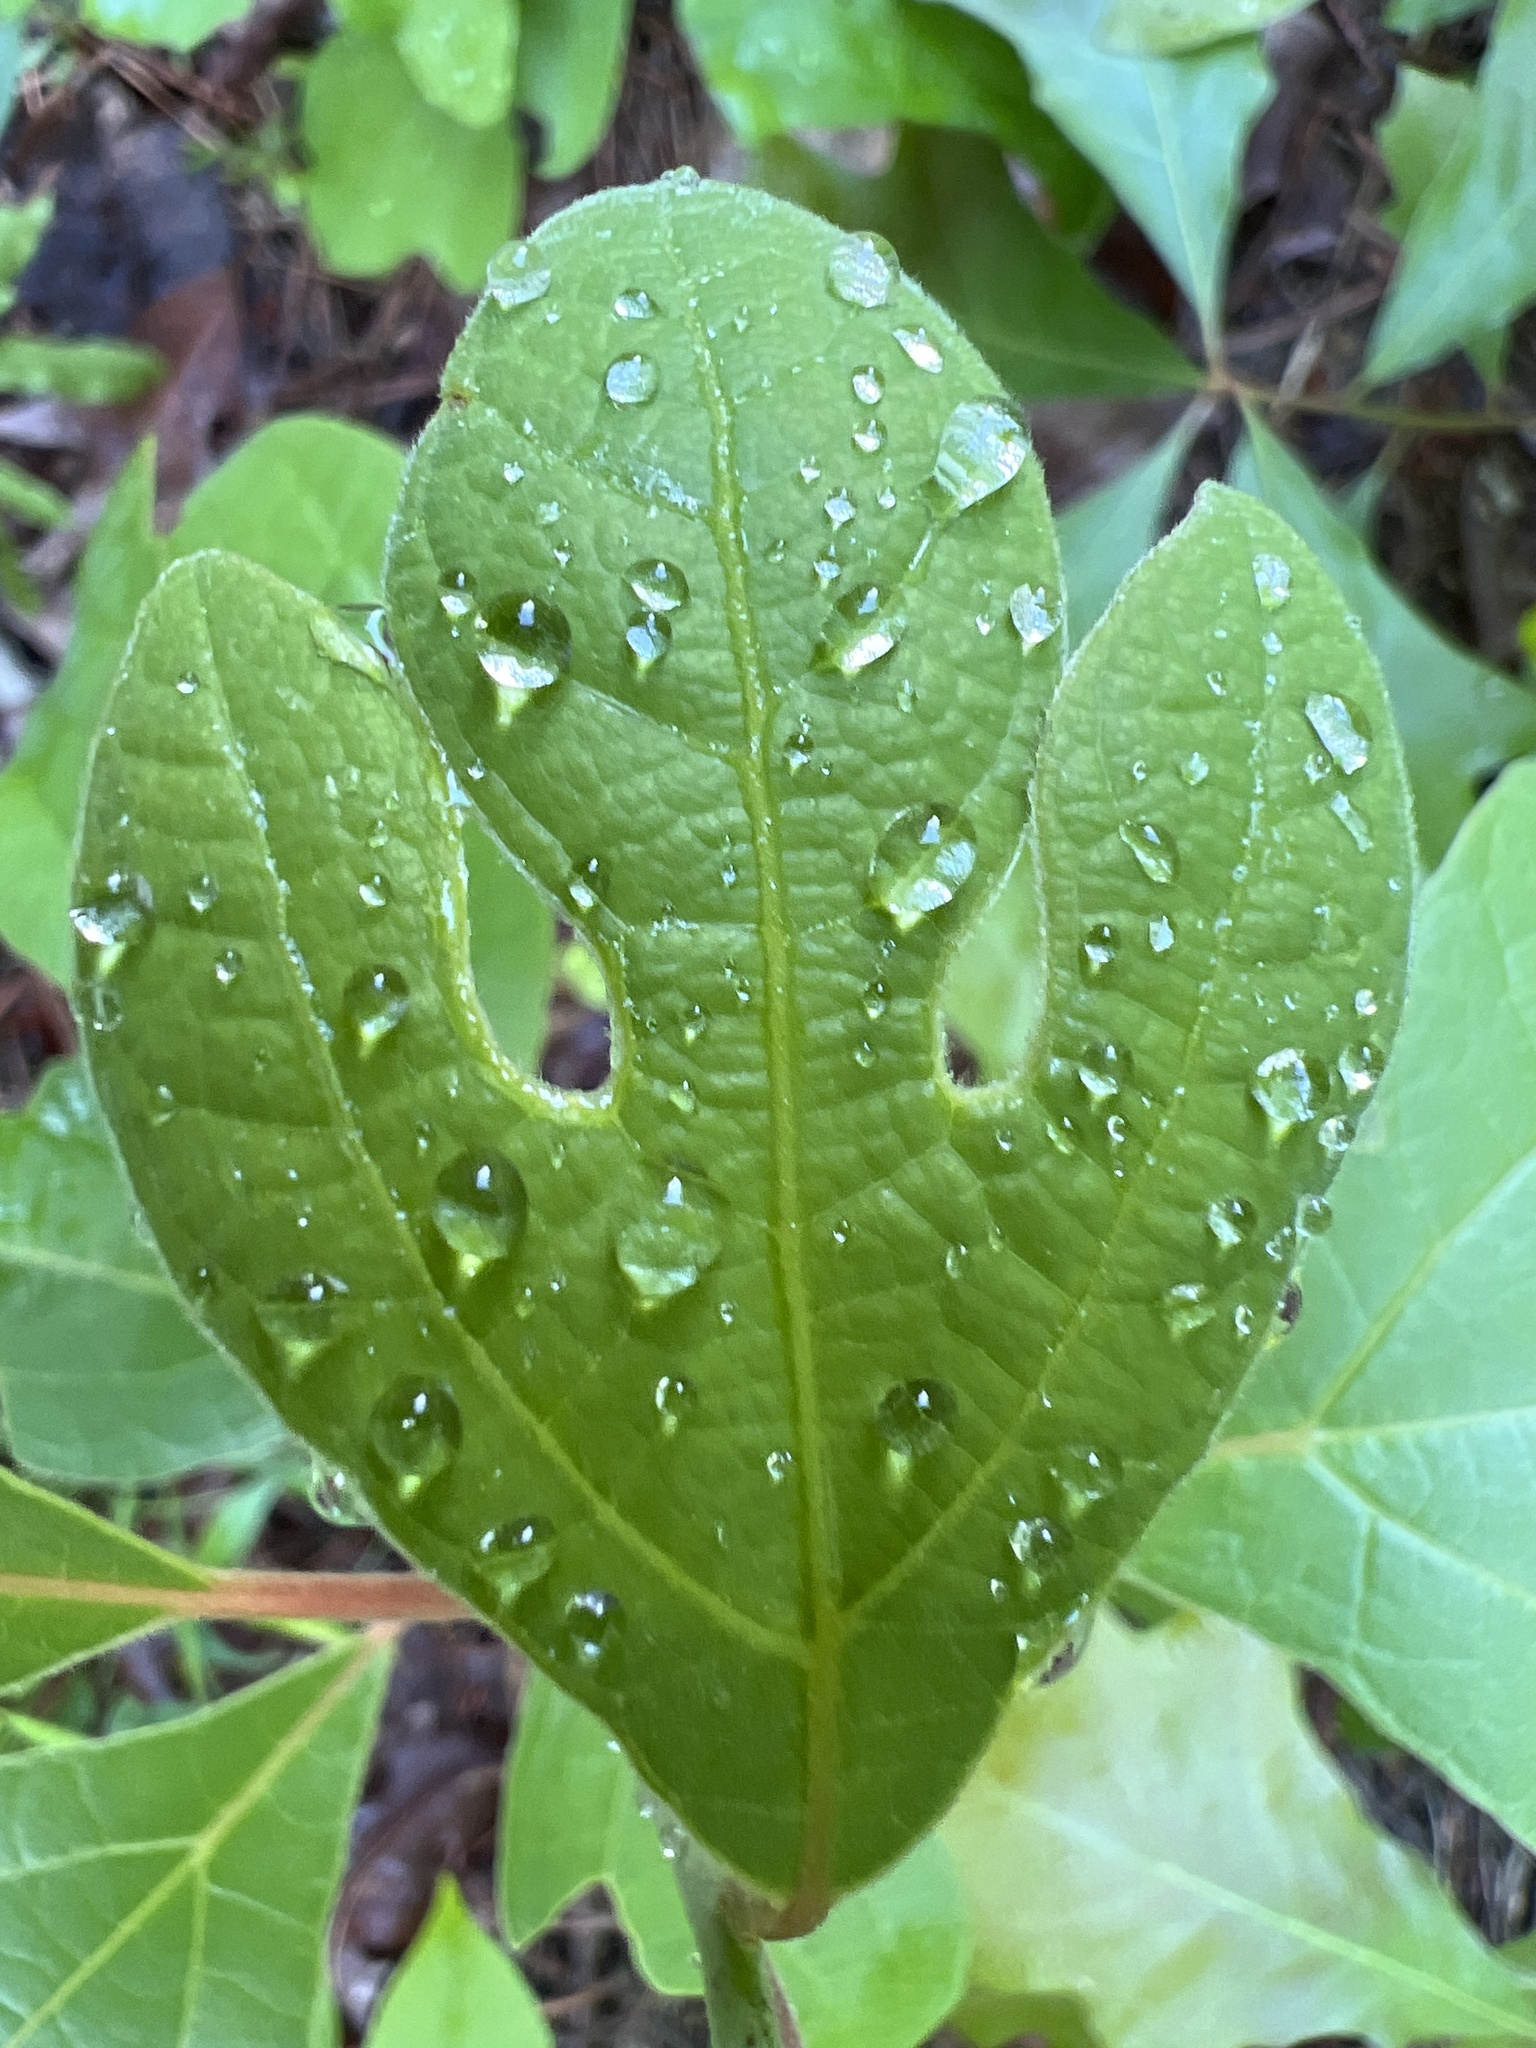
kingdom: Plantae
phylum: Tracheophyta
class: Magnoliopsida
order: Laurales
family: Lauraceae
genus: Sassafras
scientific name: Sassafras albidum
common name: Sassafras
